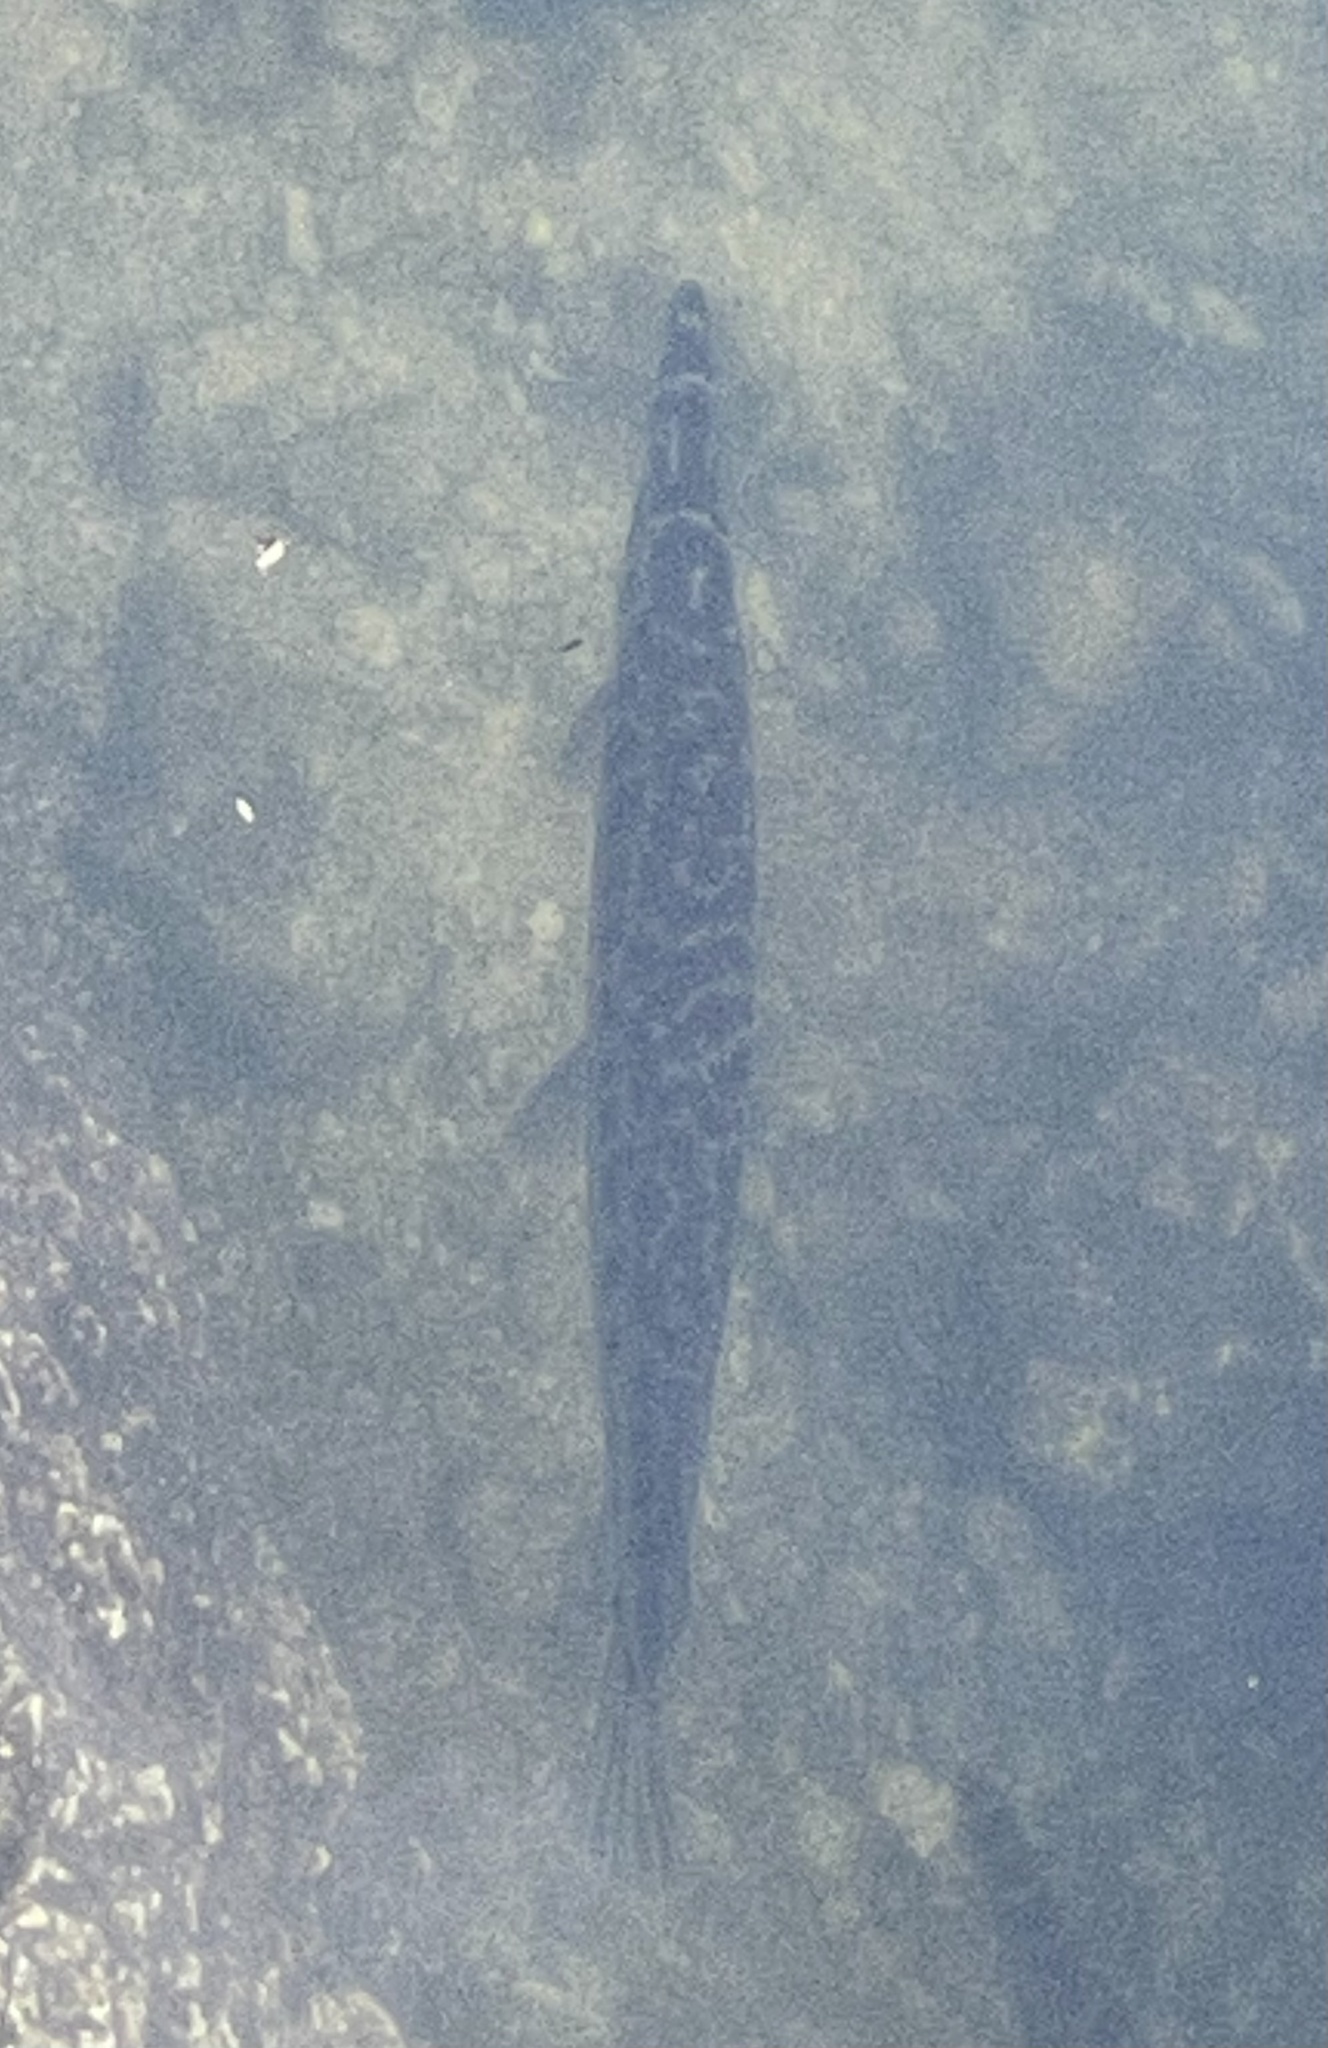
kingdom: Animalia
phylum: Chordata
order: Lepisosteiformes
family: Lepisosteidae
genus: Lepisosteus
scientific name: Lepisosteus platyrhincus
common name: Florida gar
